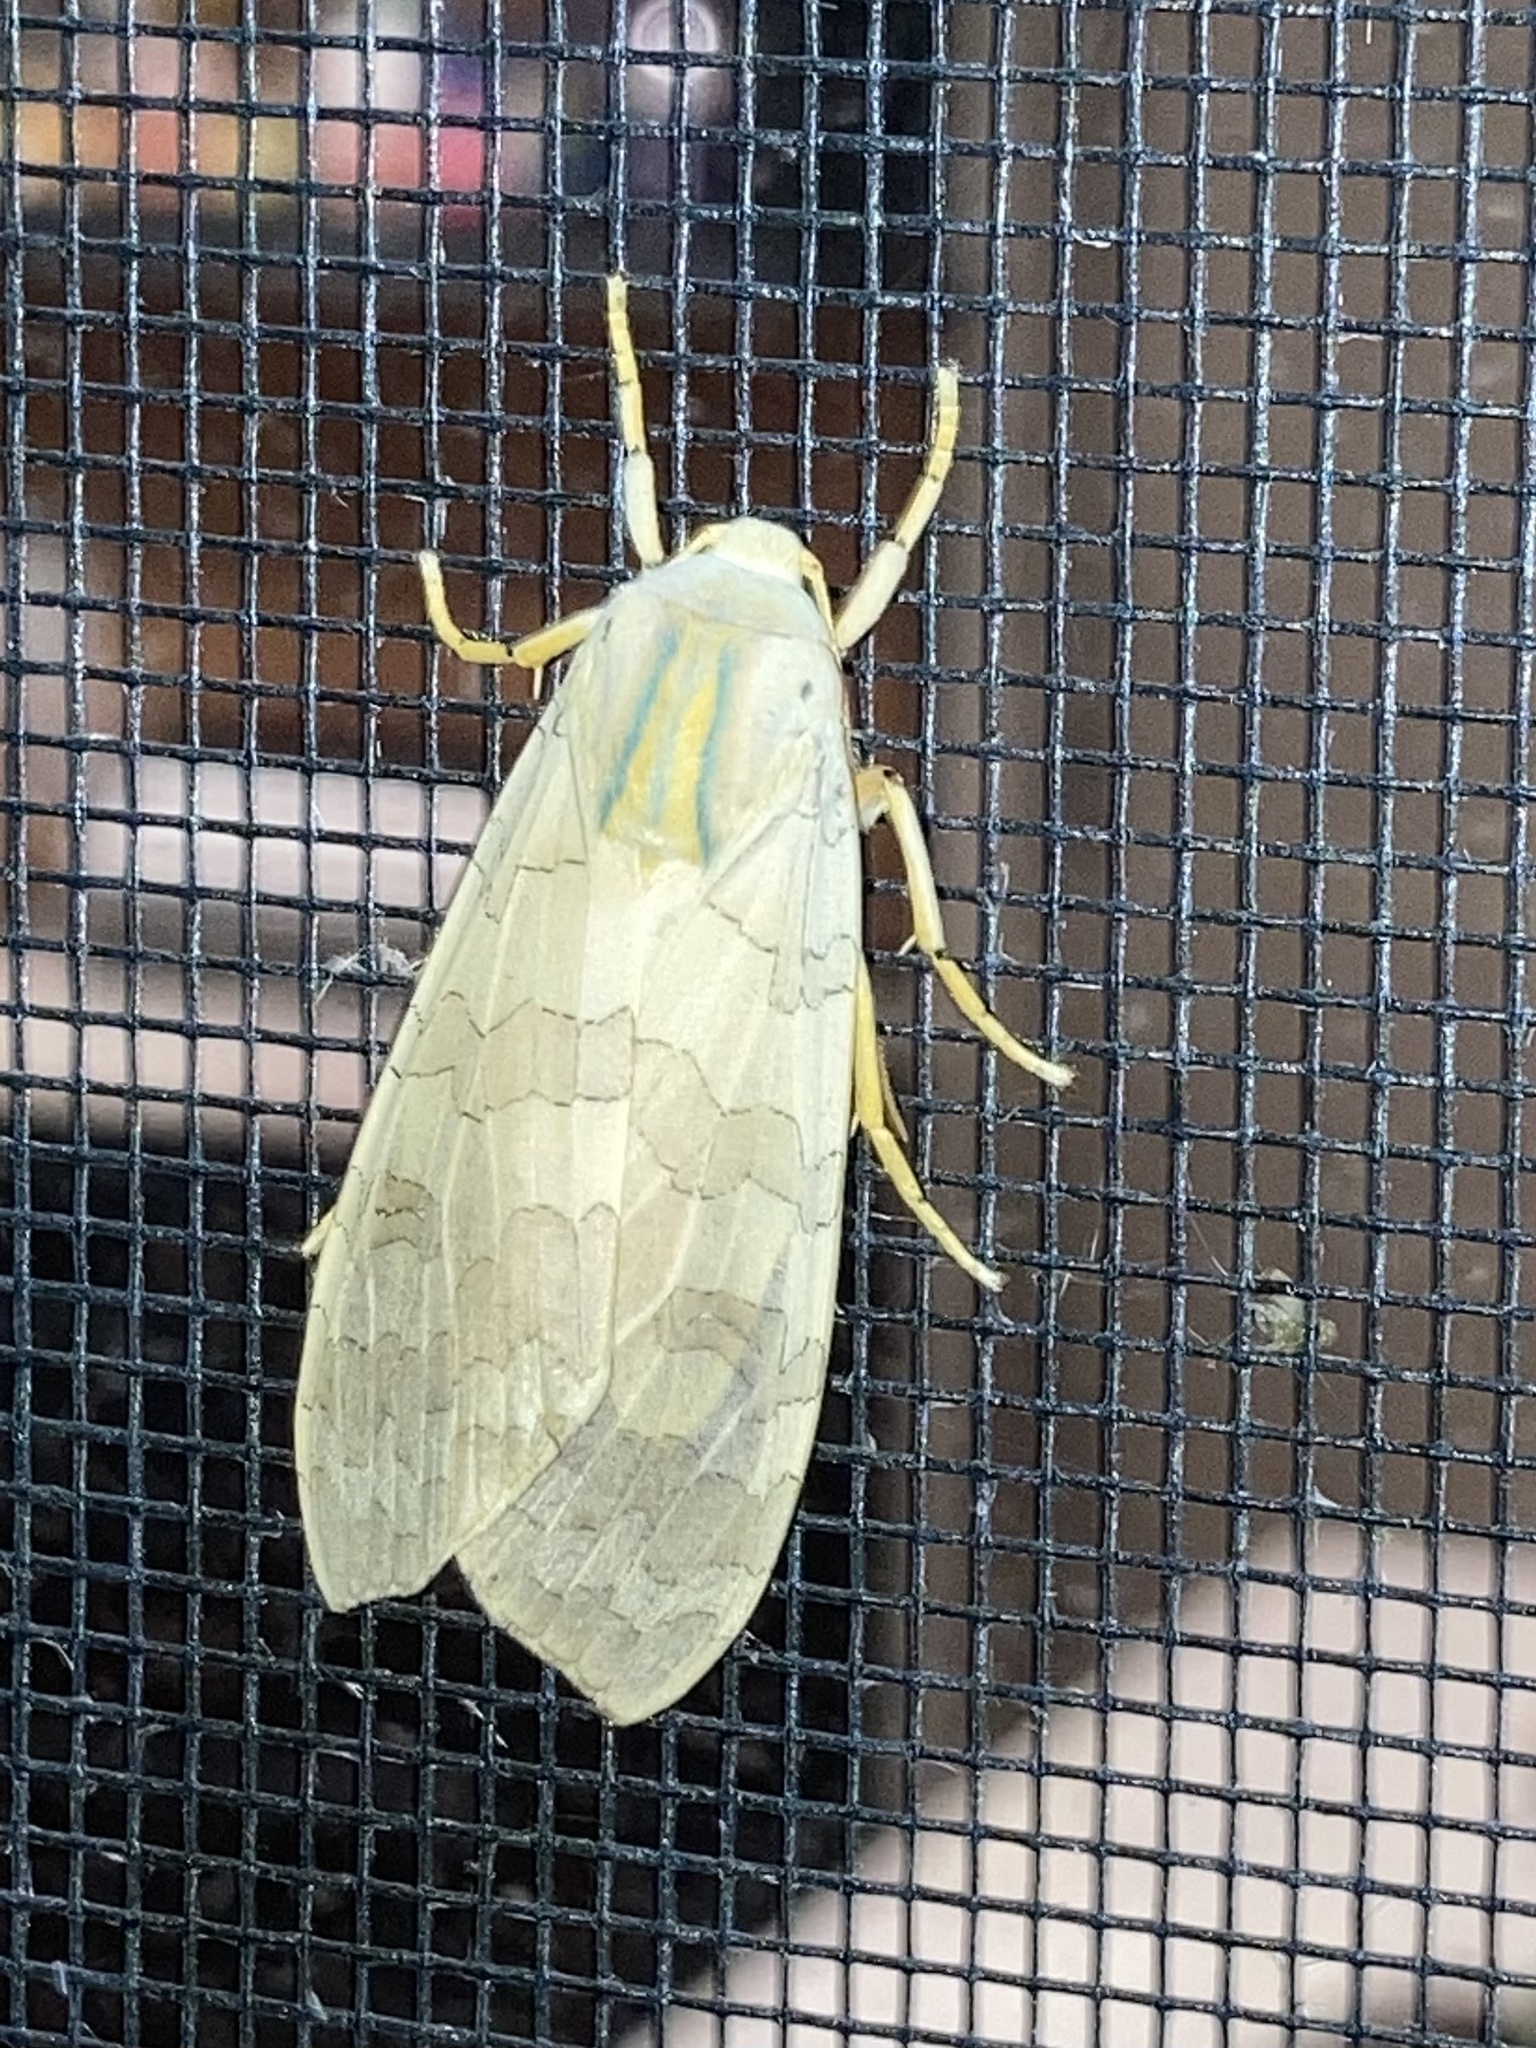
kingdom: Animalia
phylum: Arthropoda
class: Insecta
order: Lepidoptera
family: Erebidae
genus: Halysidota
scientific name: Halysidota
